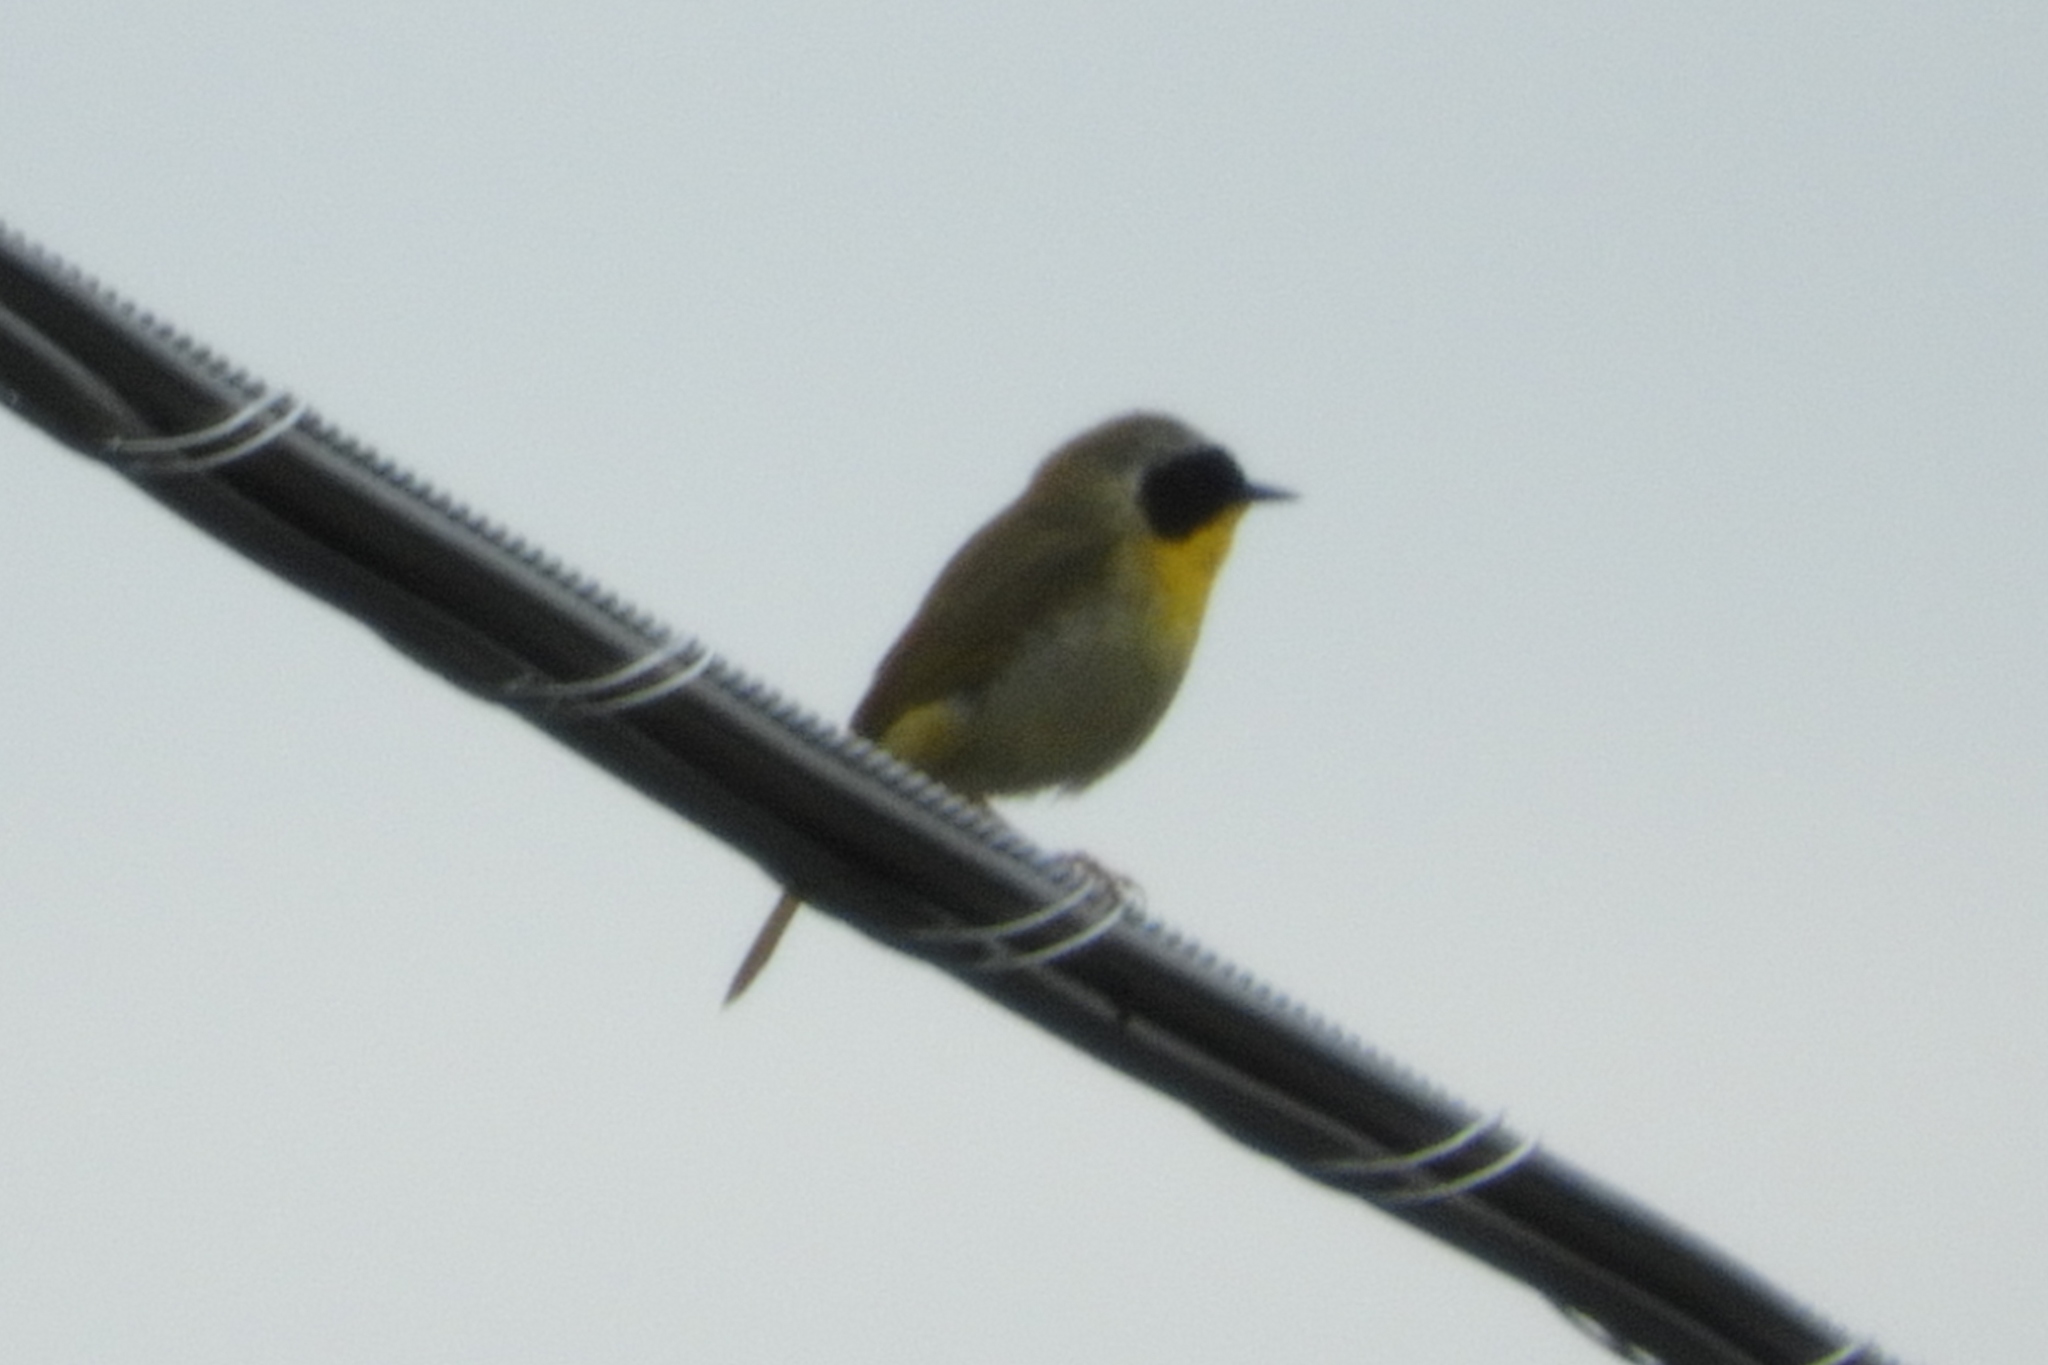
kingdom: Animalia
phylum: Chordata
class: Aves
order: Passeriformes
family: Parulidae
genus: Geothlypis
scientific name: Geothlypis trichas
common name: Common yellowthroat
